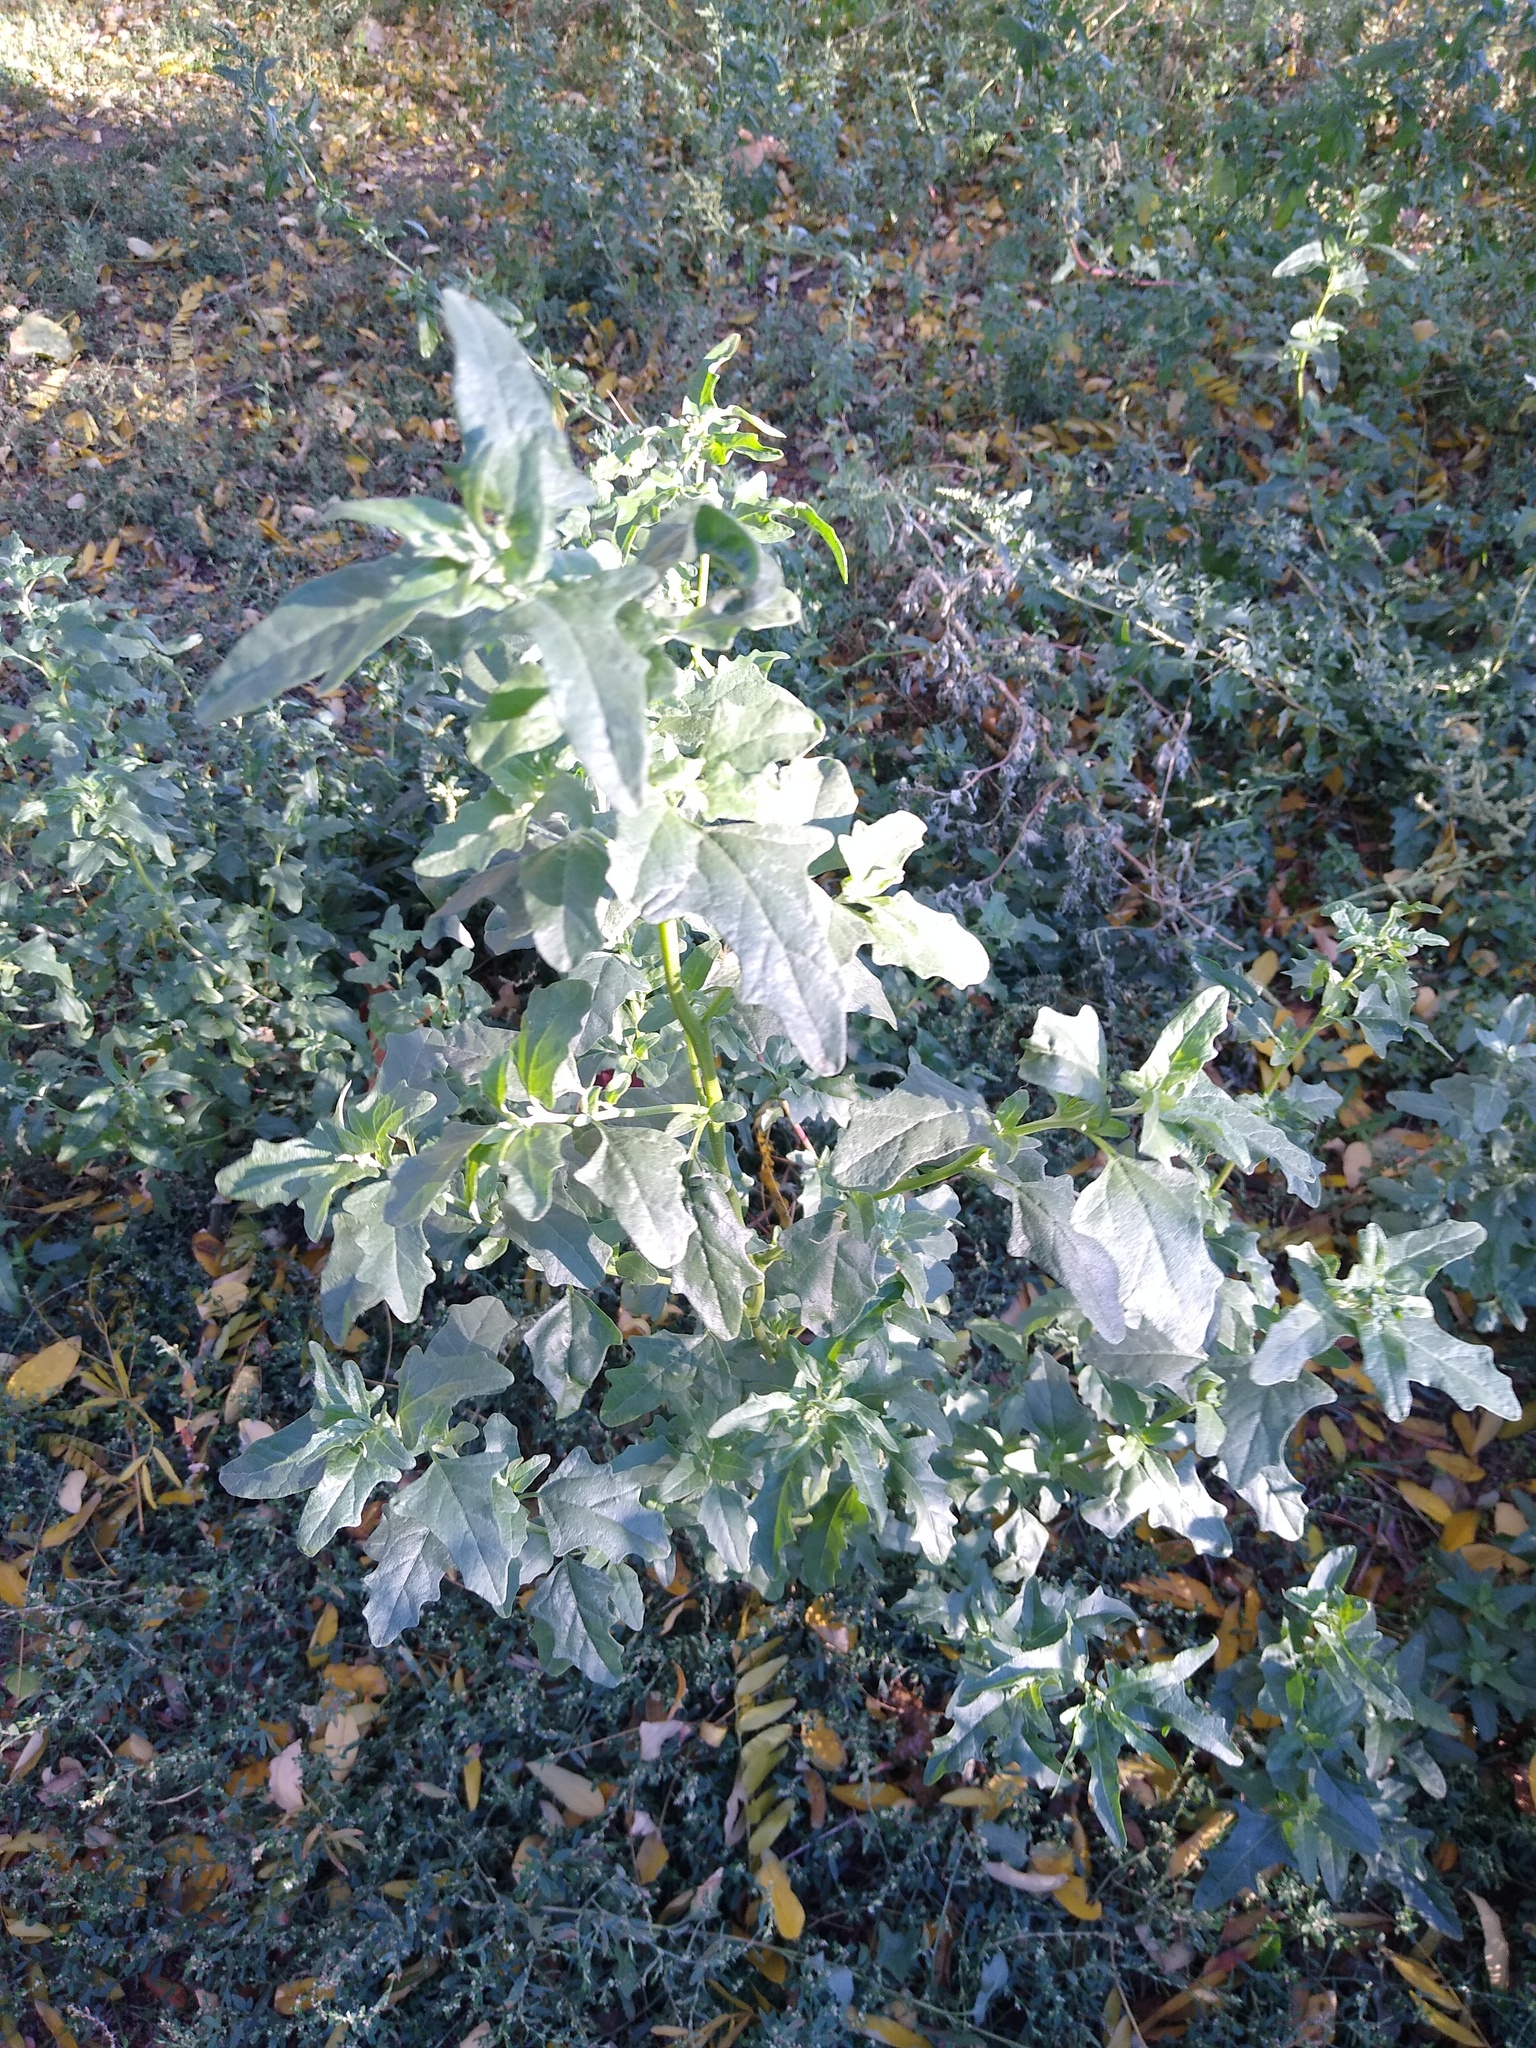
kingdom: Plantae
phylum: Tracheophyta
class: Magnoliopsida
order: Caryophyllales
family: Amaranthaceae
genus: Atriplex
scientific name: Atriplex tatarica
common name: Tatarian orache
